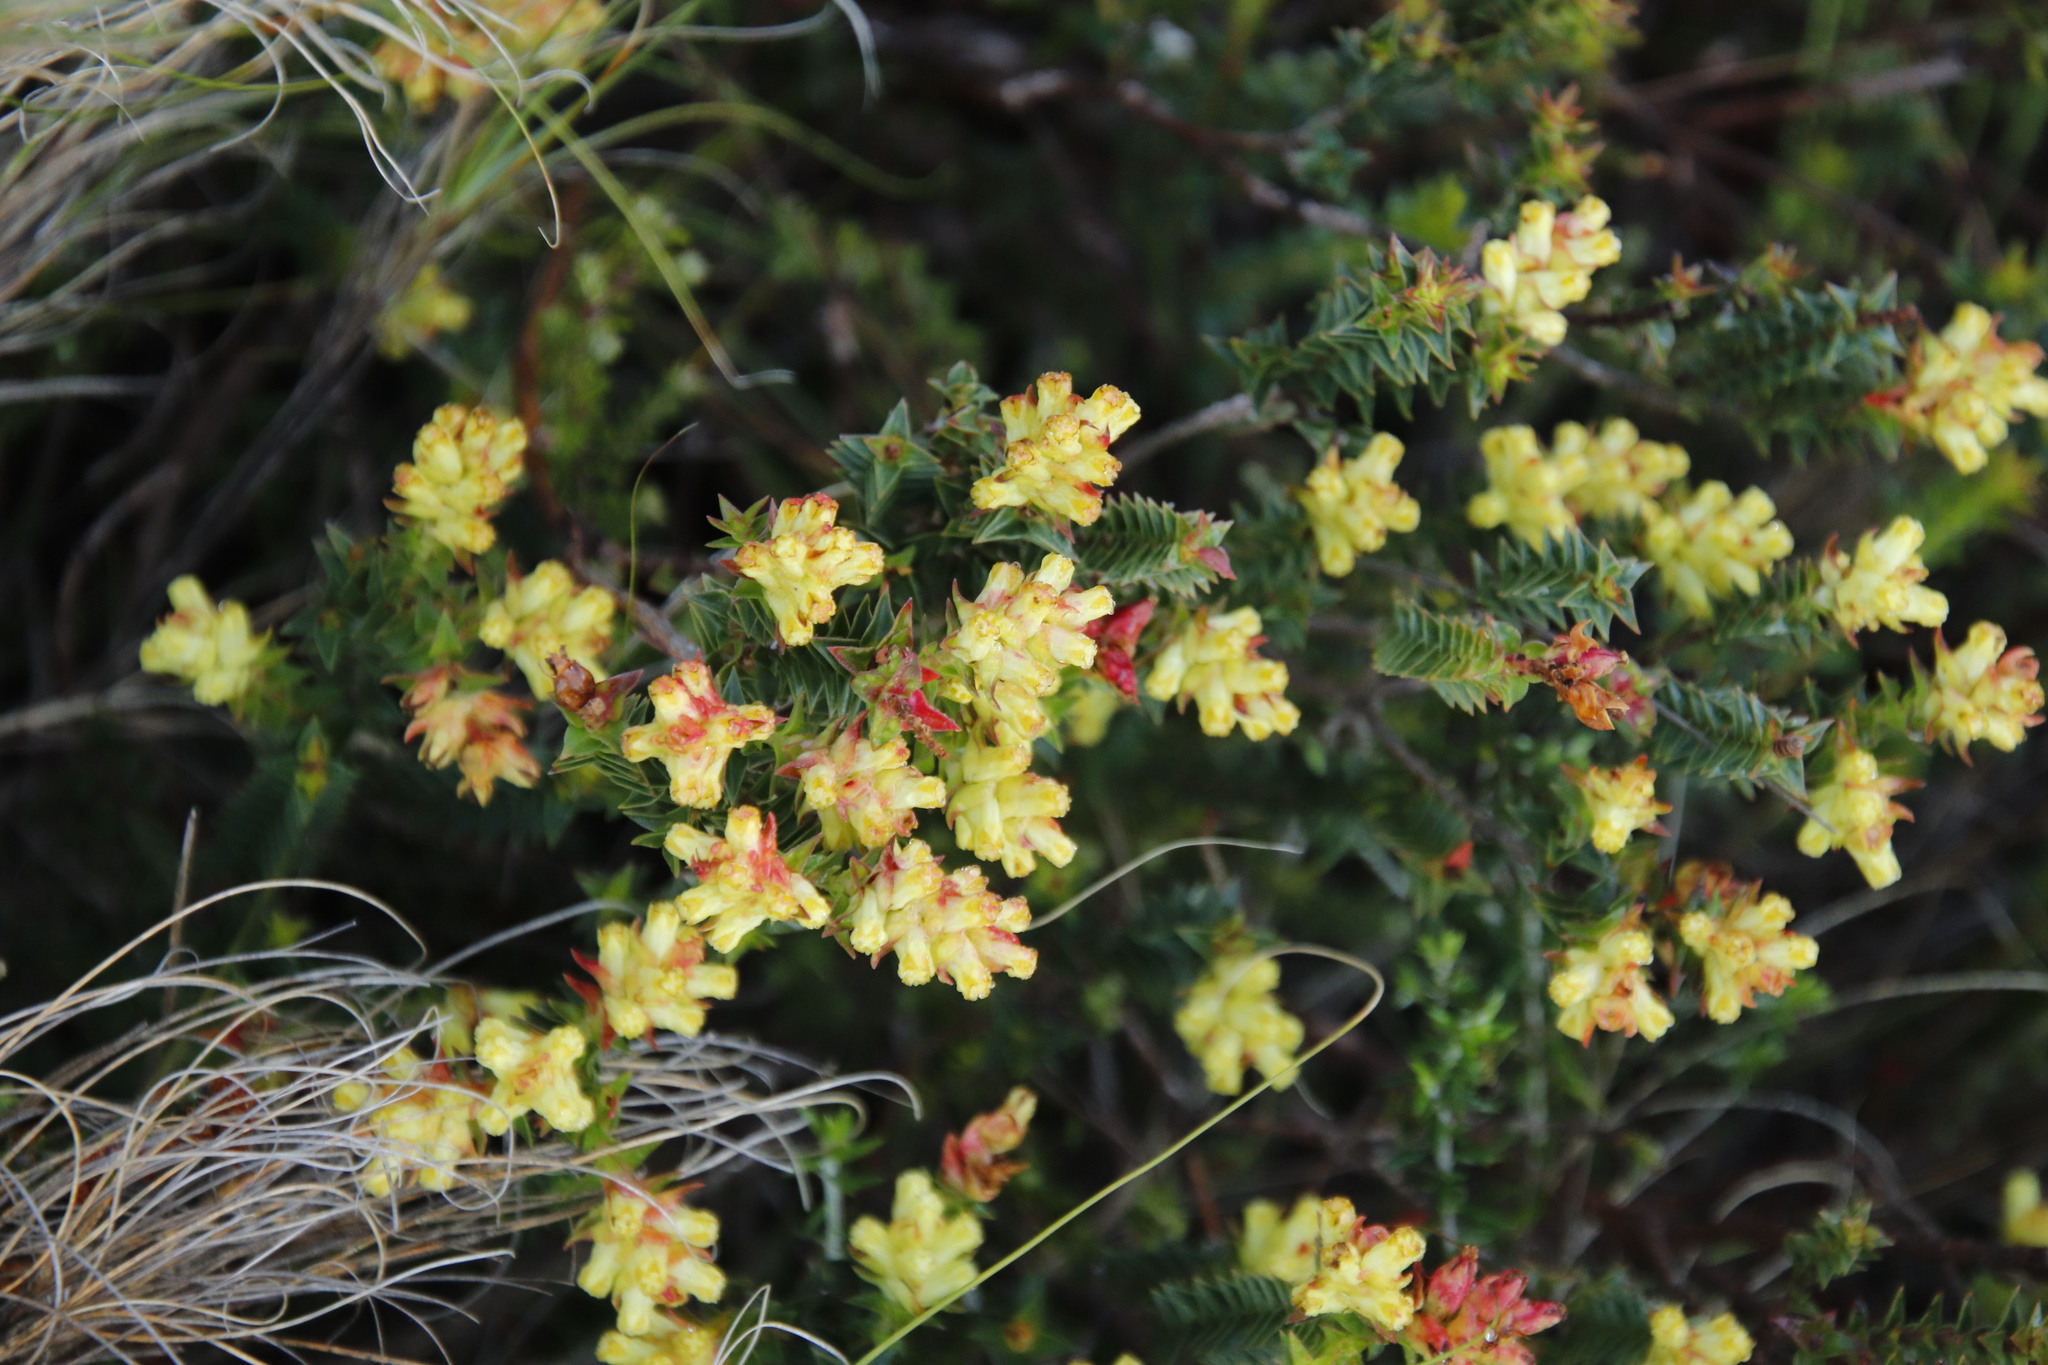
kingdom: Plantae
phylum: Tracheophyta
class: Magnoliopsida
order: Myrtales
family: Penaeaceae
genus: Penaea
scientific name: Penaea mucronata
